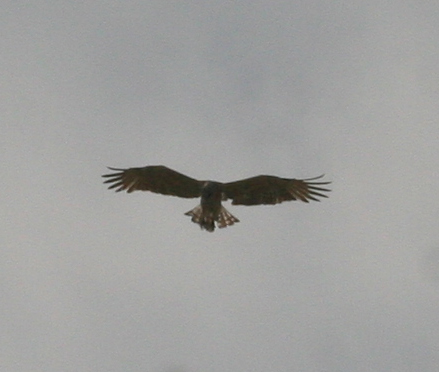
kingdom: Animalia
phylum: Chordata
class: Aves
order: Accipitriformes
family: Accipitridae
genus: Circaetus
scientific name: Circaetus gallicus
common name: Short-toed snake eagle
